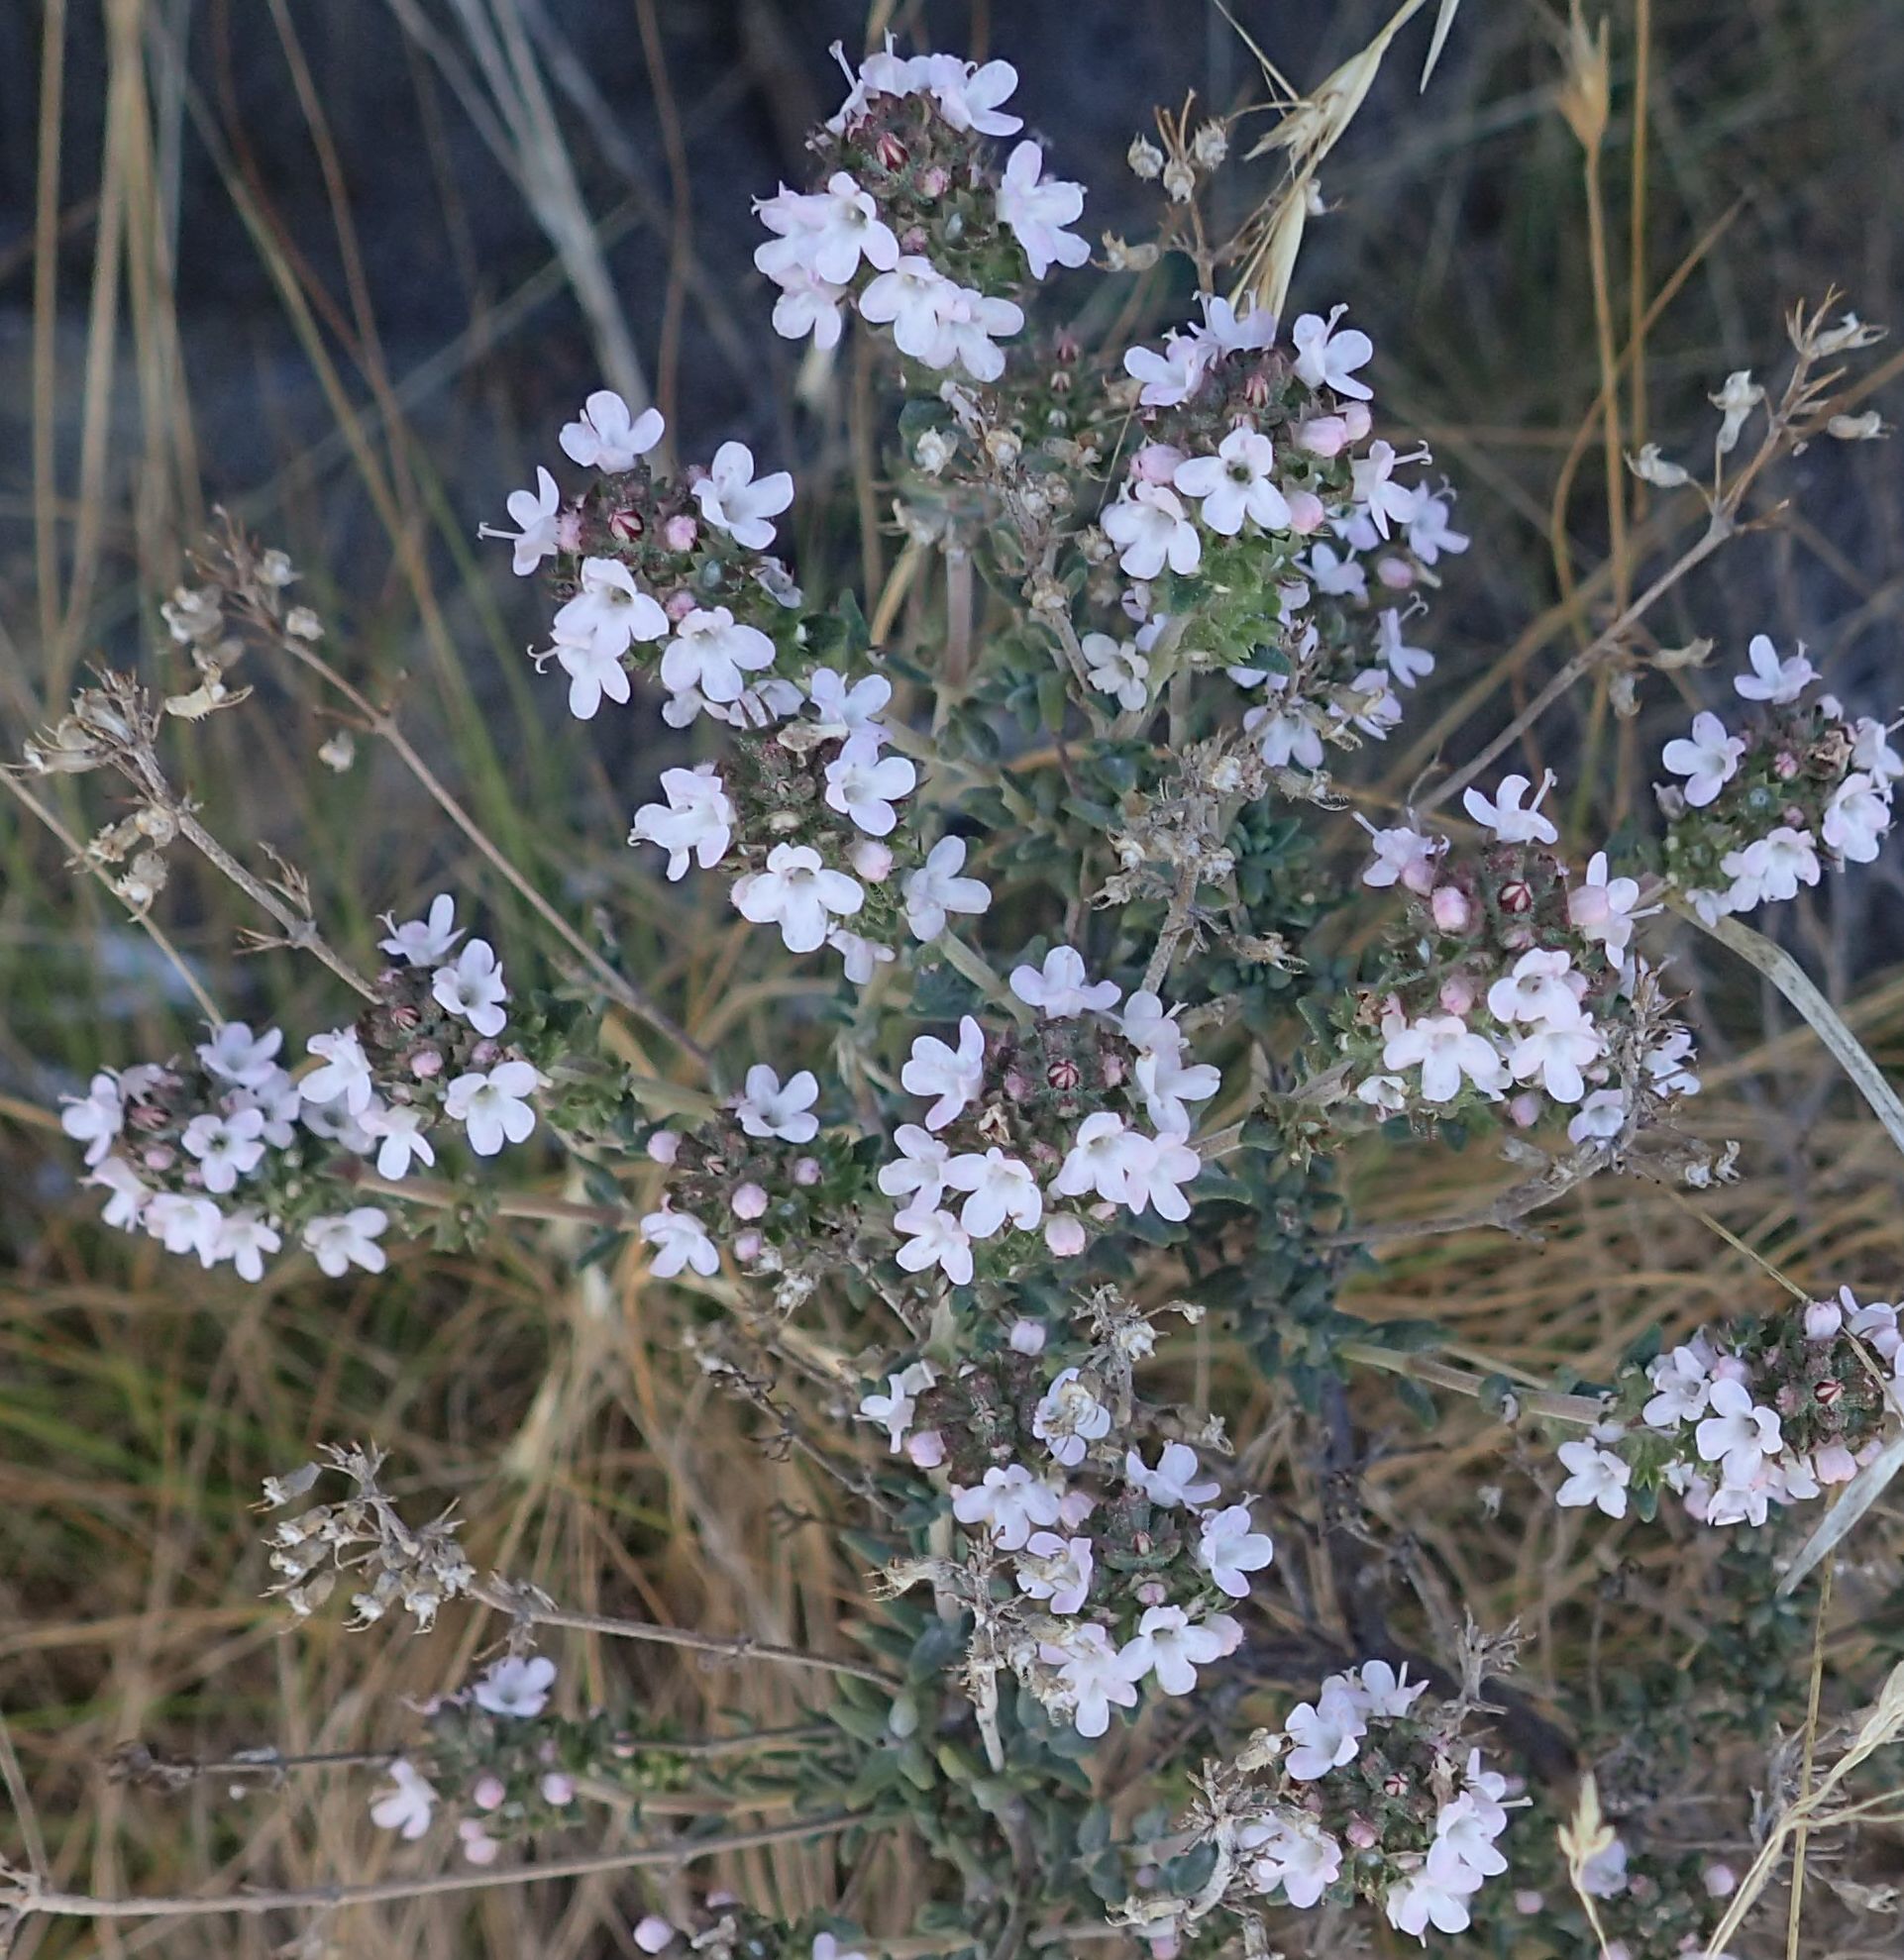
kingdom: Plantae
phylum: Tracheophyta
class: Magnoliopsida
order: Lamiales
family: Lamiaceae
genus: Thymus
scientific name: Thymus vulgaris
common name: Garden thyme
